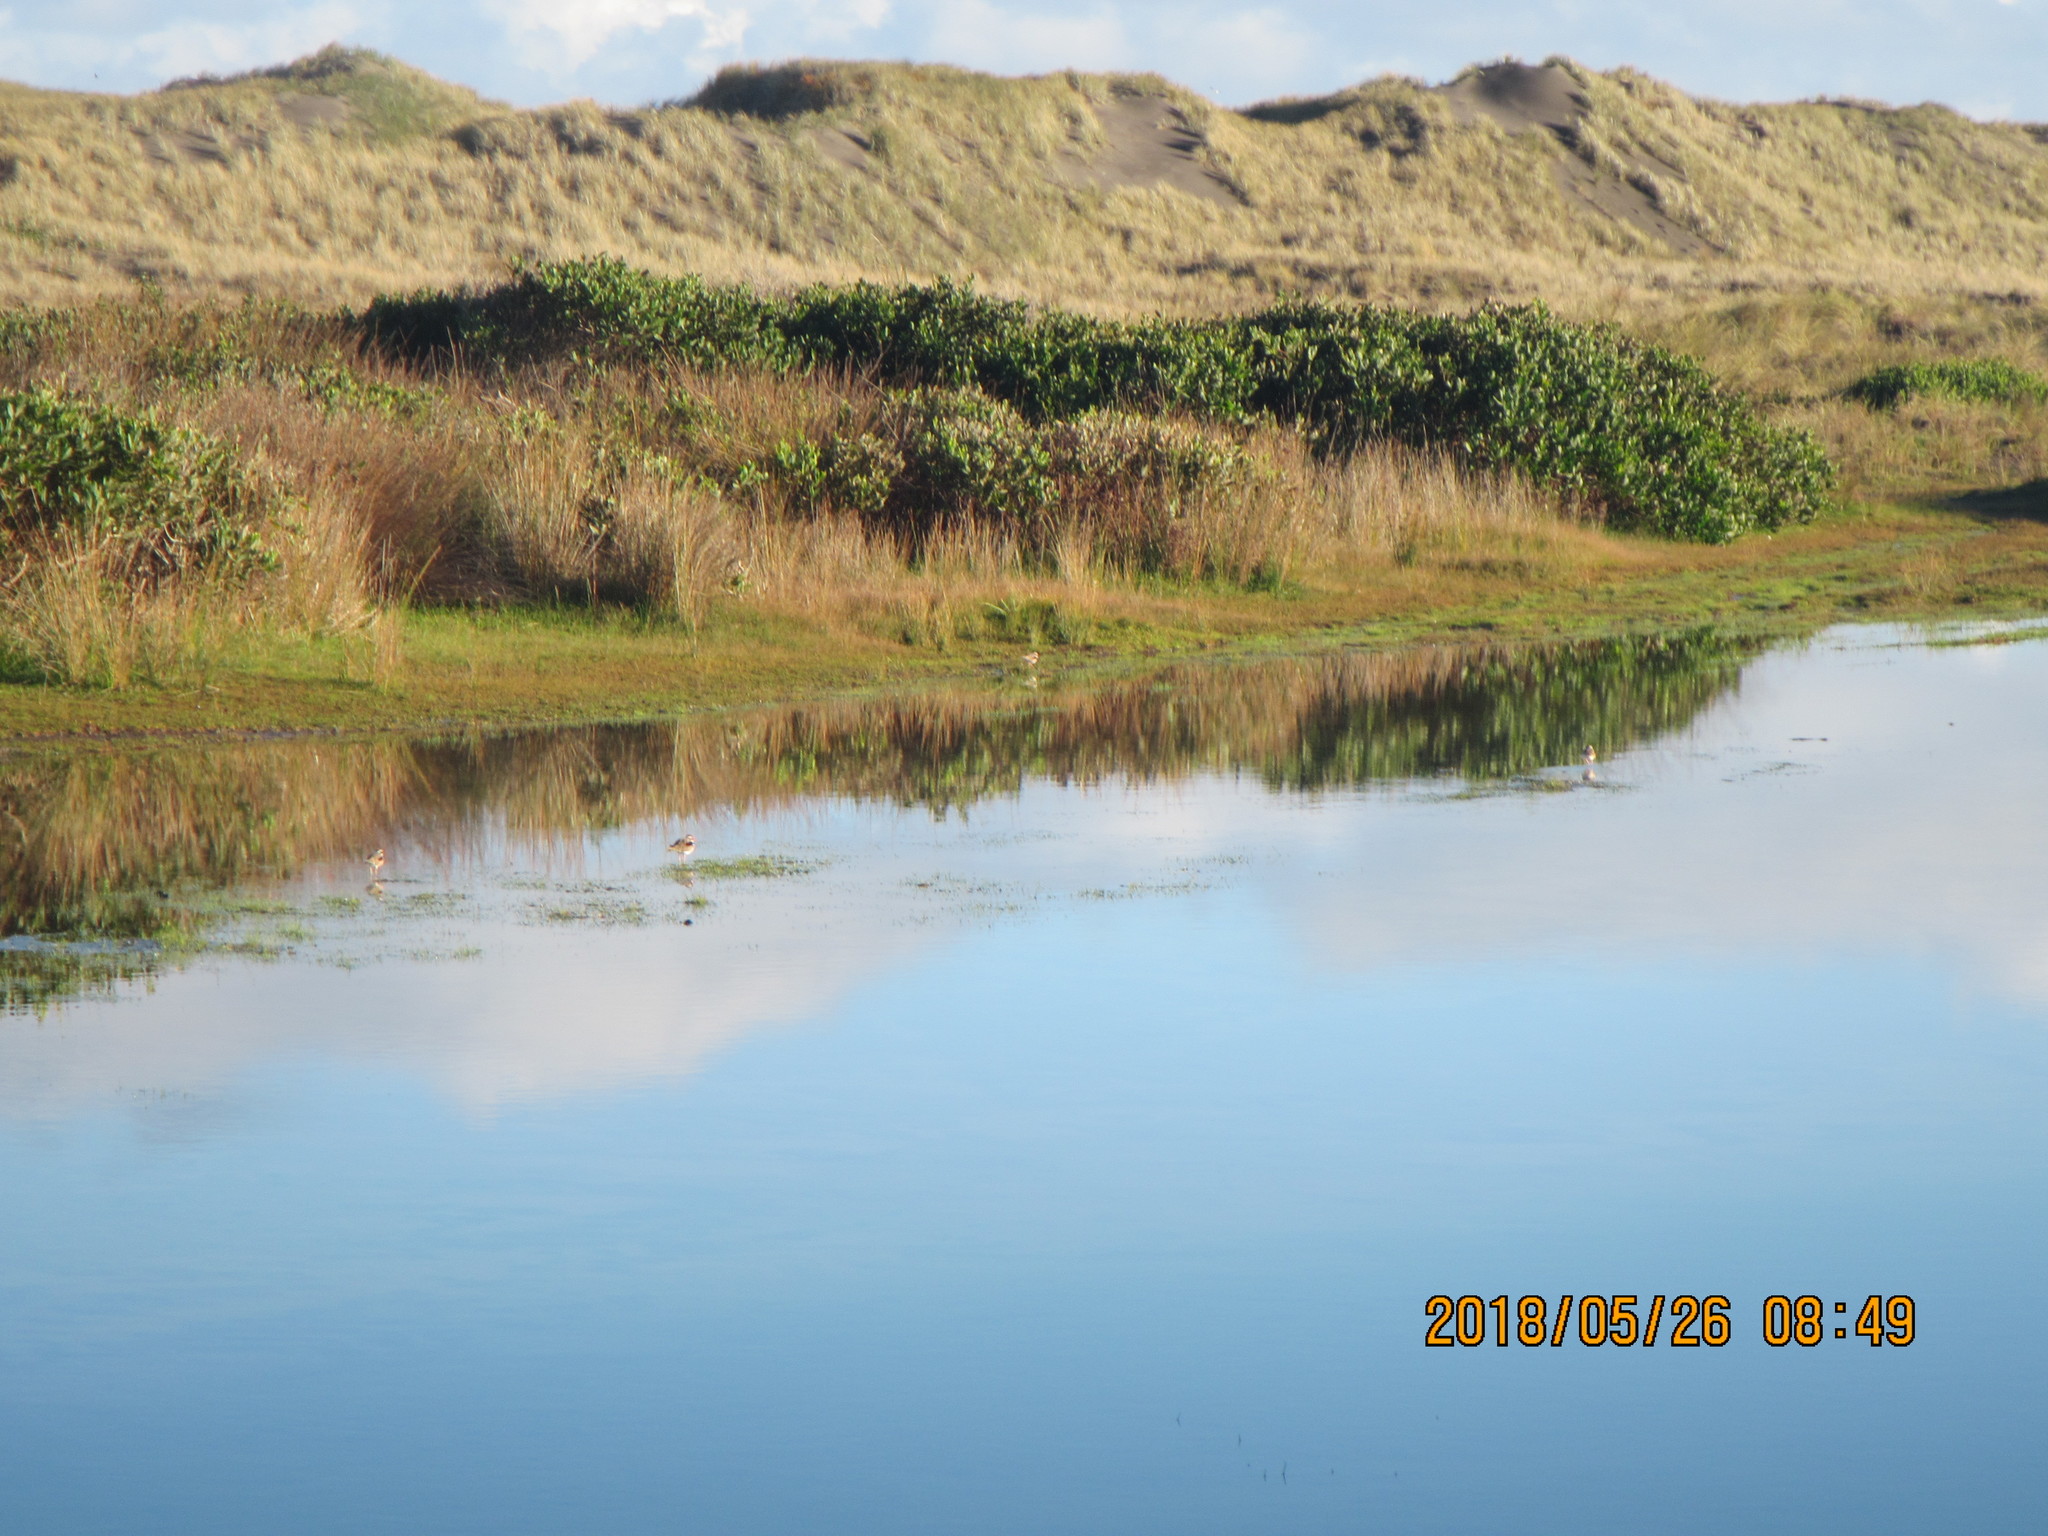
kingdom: Animalia
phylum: Chordata
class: Aves
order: Charadriiformes
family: Charadriidae
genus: Elseyornis
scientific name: Elseyornis melanops
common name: Black-fronted dotterel
